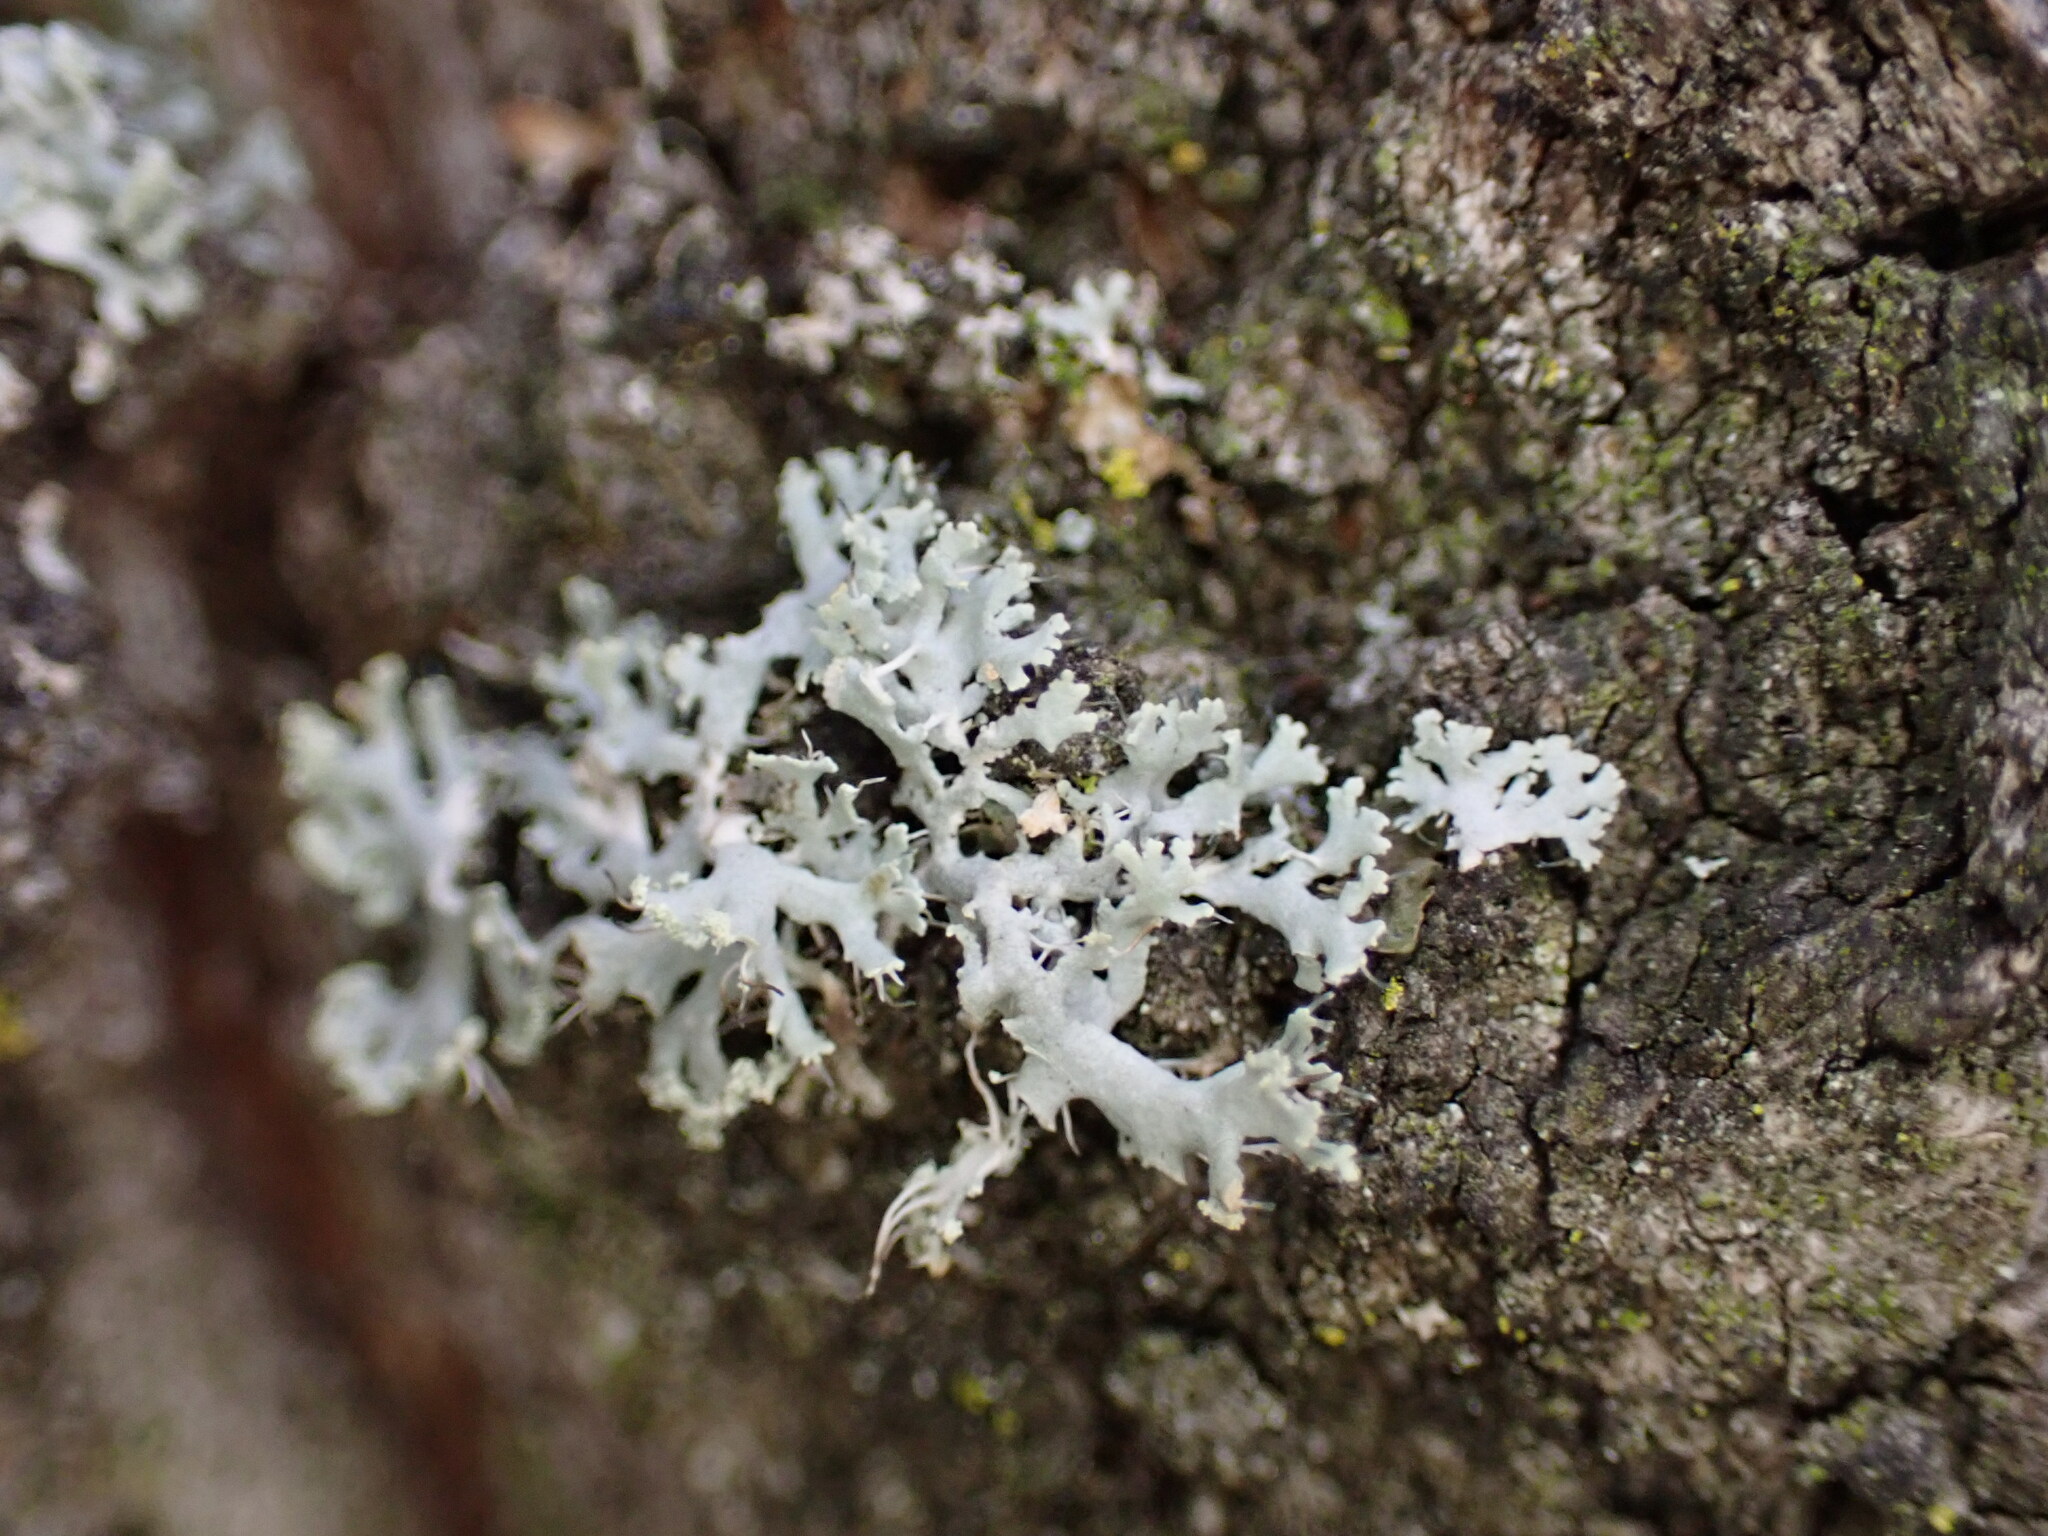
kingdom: Fungi
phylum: Ascomycota
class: Lecanoromycetes
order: Caliciales
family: Physciaceae
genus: Physcia
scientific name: Physcia tenella
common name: Fringed rosette lichen
